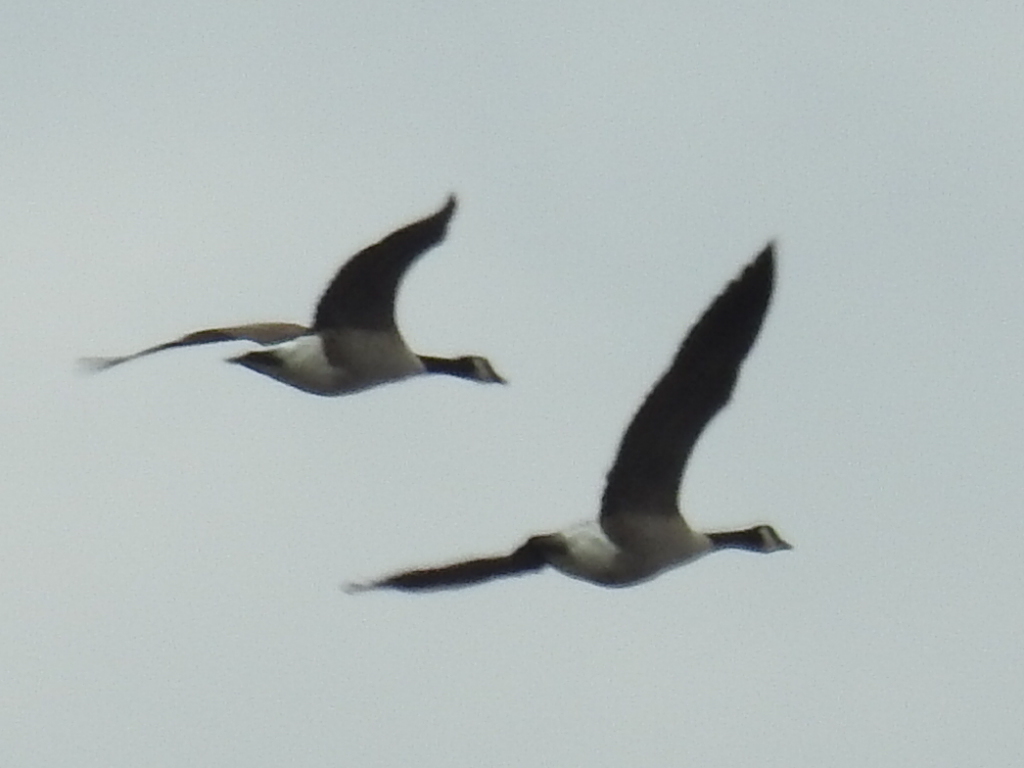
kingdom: Animalia
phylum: Chordata
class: Aves
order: Anseriformes
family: Anatidae
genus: Branta
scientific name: Branta canadensis
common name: Canada goose
